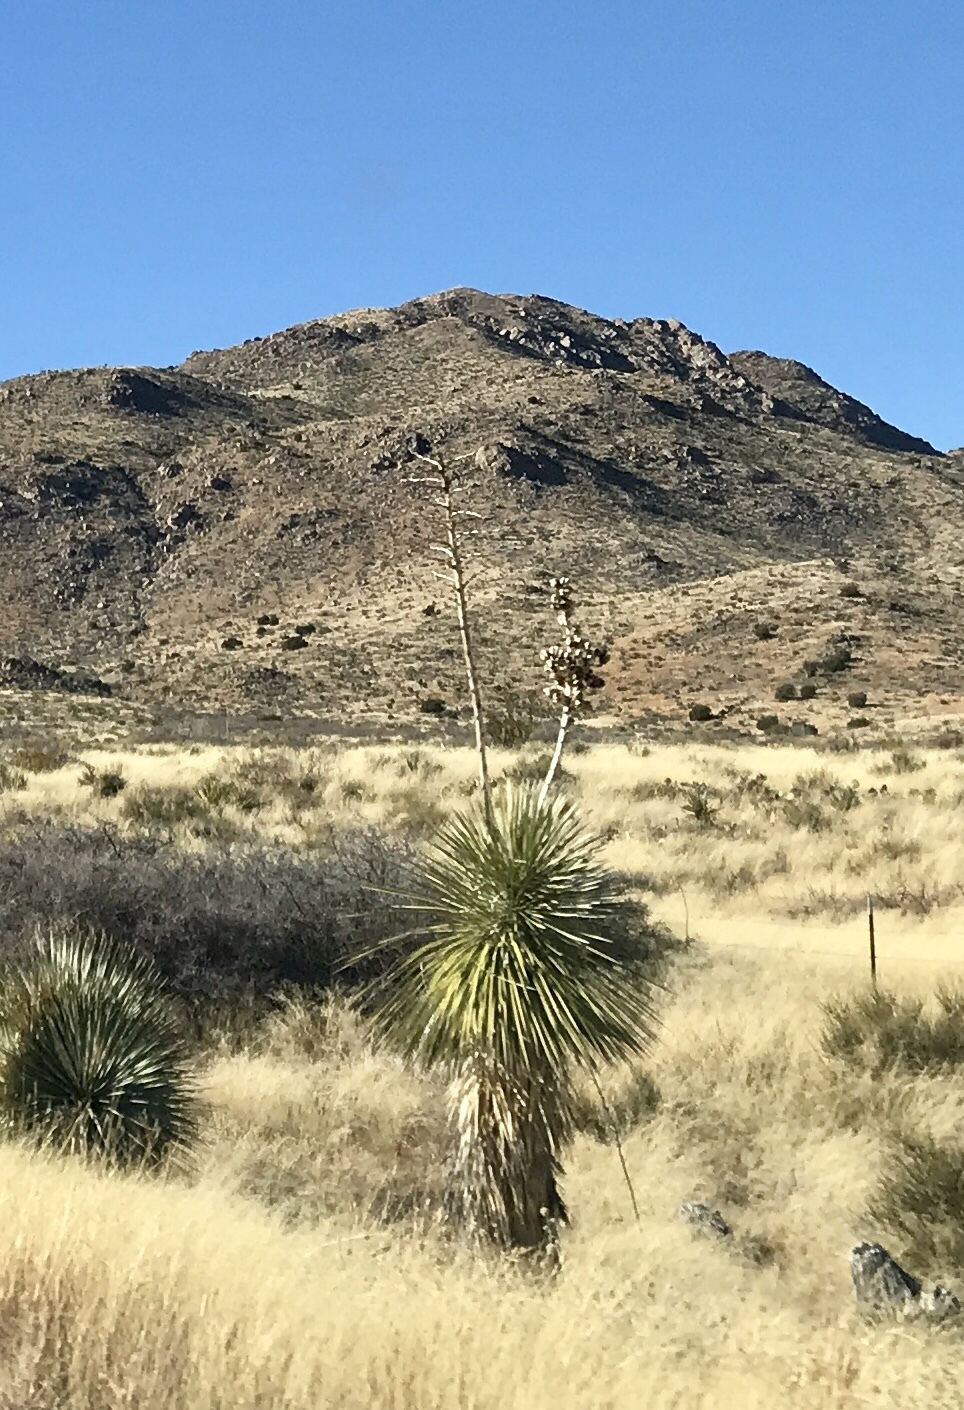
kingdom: Plantae
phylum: Tracheophyta
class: Liliopsida
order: Asparagales
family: Asparagaceae
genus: Yucca
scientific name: Yucca elata
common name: Palmella
